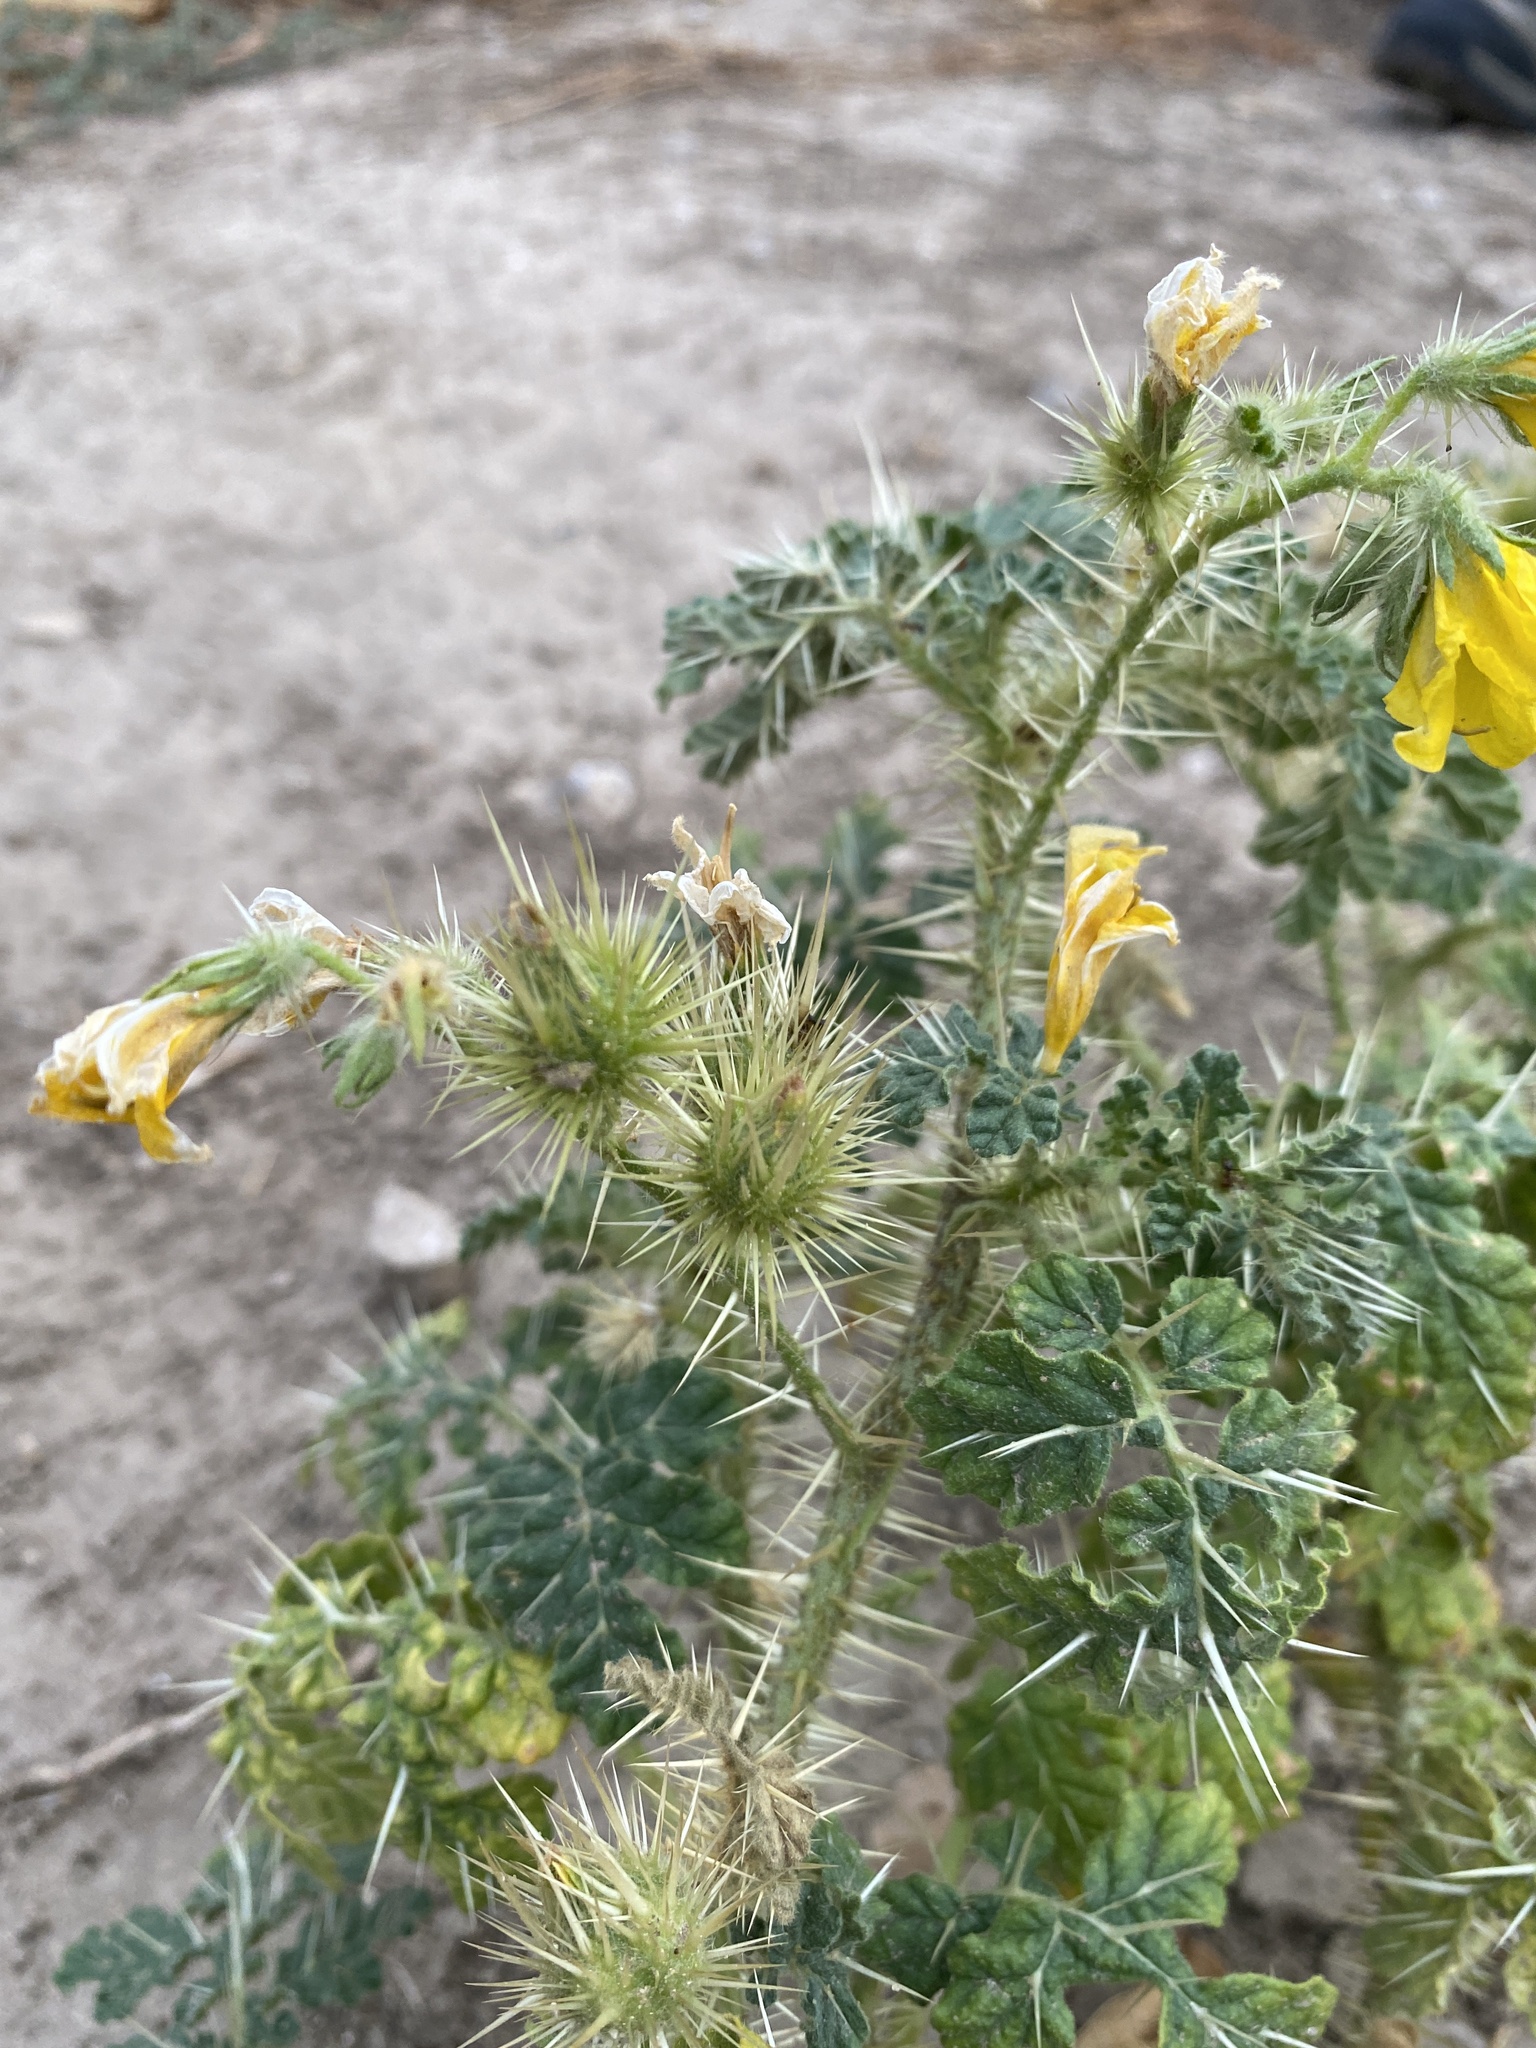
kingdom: Plantae
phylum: Tracheophyta
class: Magnoliopsida
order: Solanales
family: Solanaceae
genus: Solanum
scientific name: Solanum angustifolium
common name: Buffalobur nightshade
